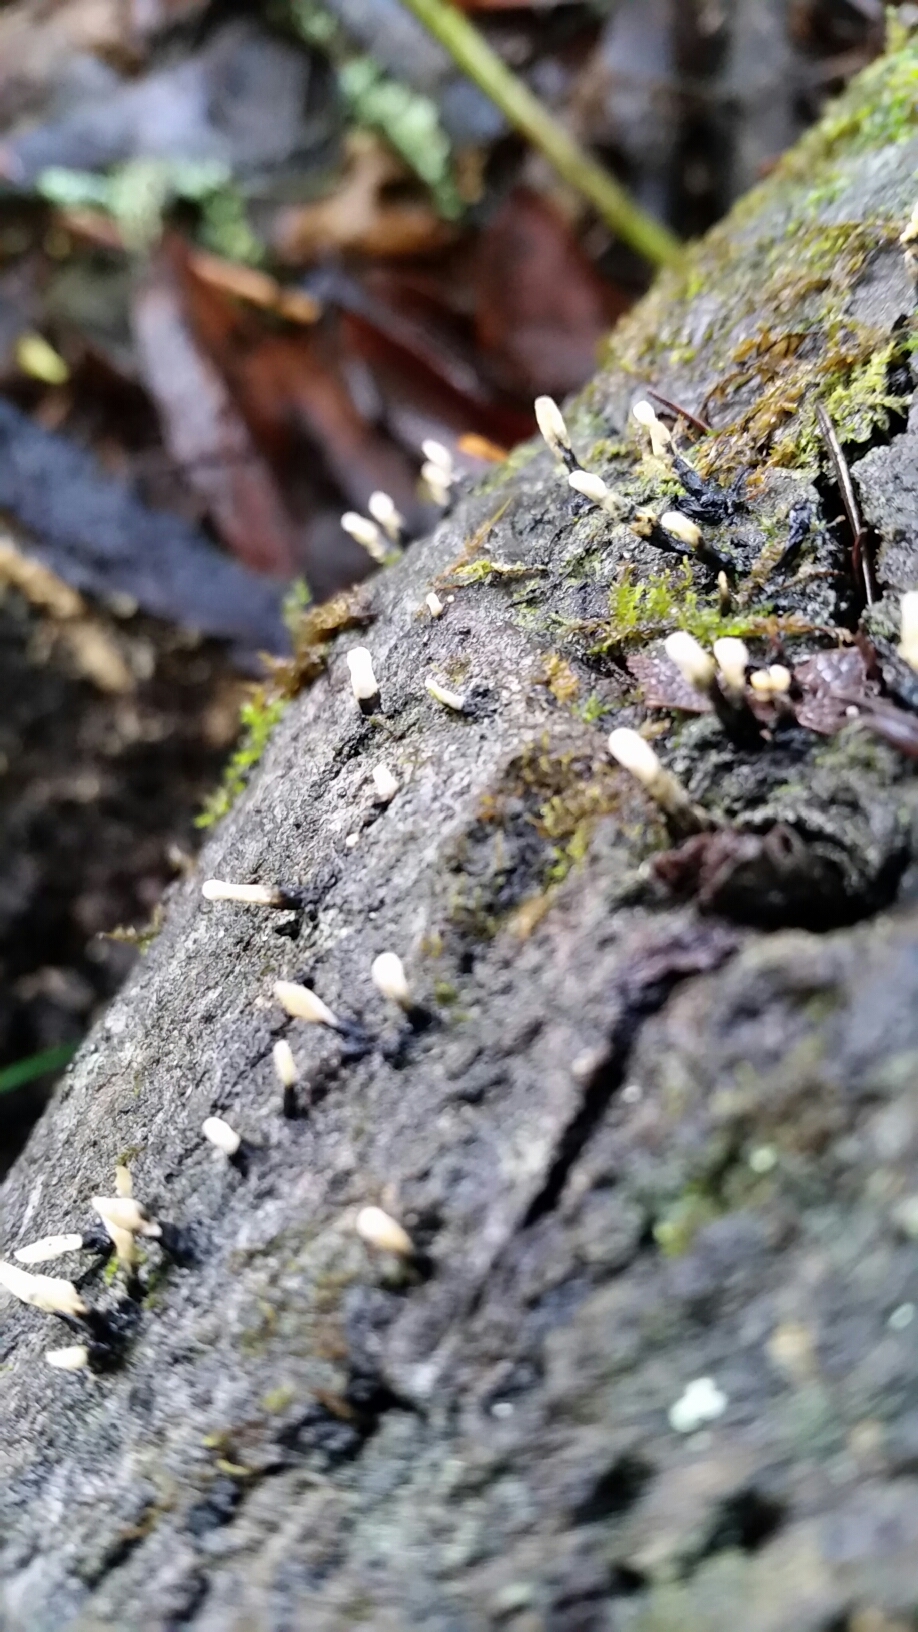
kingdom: Fungi
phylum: Ascomycota
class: Sordariomycetes
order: Xylariales
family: Xylariaceae
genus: Xylaria
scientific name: Xylaria hypoxylon
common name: Candle-snuff fungus
